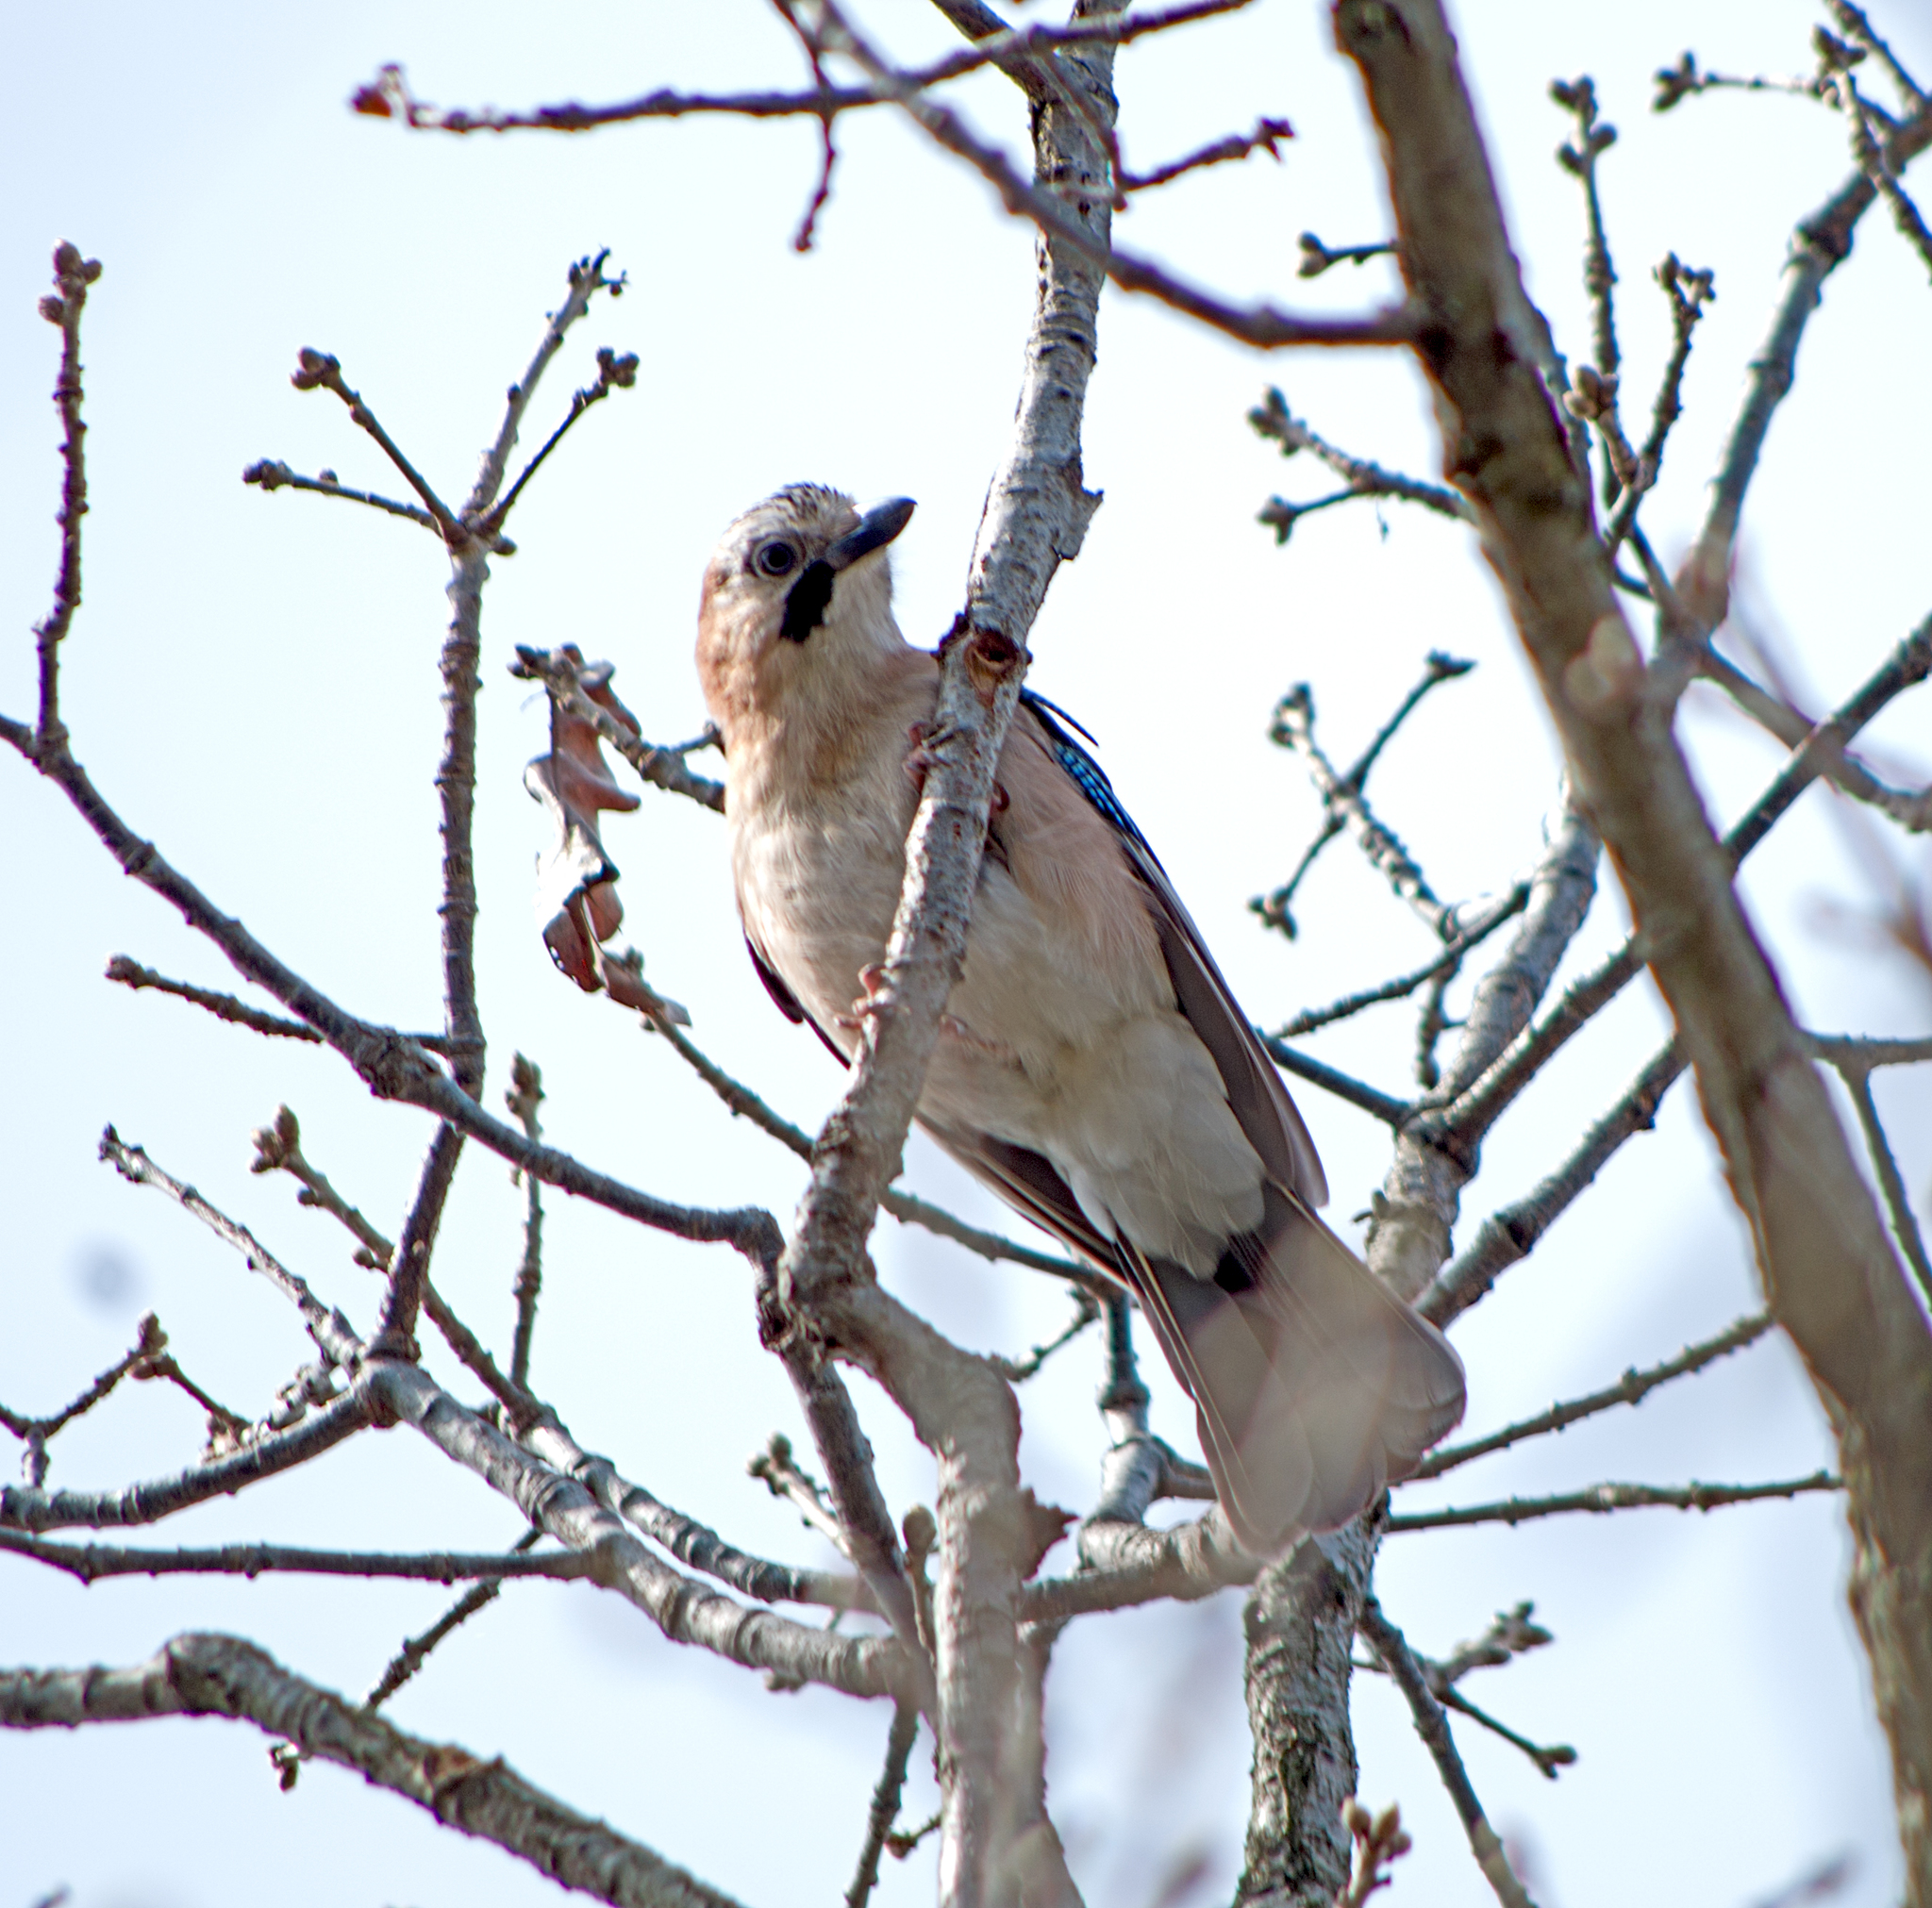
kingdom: Animalia
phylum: Chordata
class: Aves
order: Passeriformes
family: Corvidae
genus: Garrulus
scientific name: Garrulus glandarius
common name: Eurasian jay
